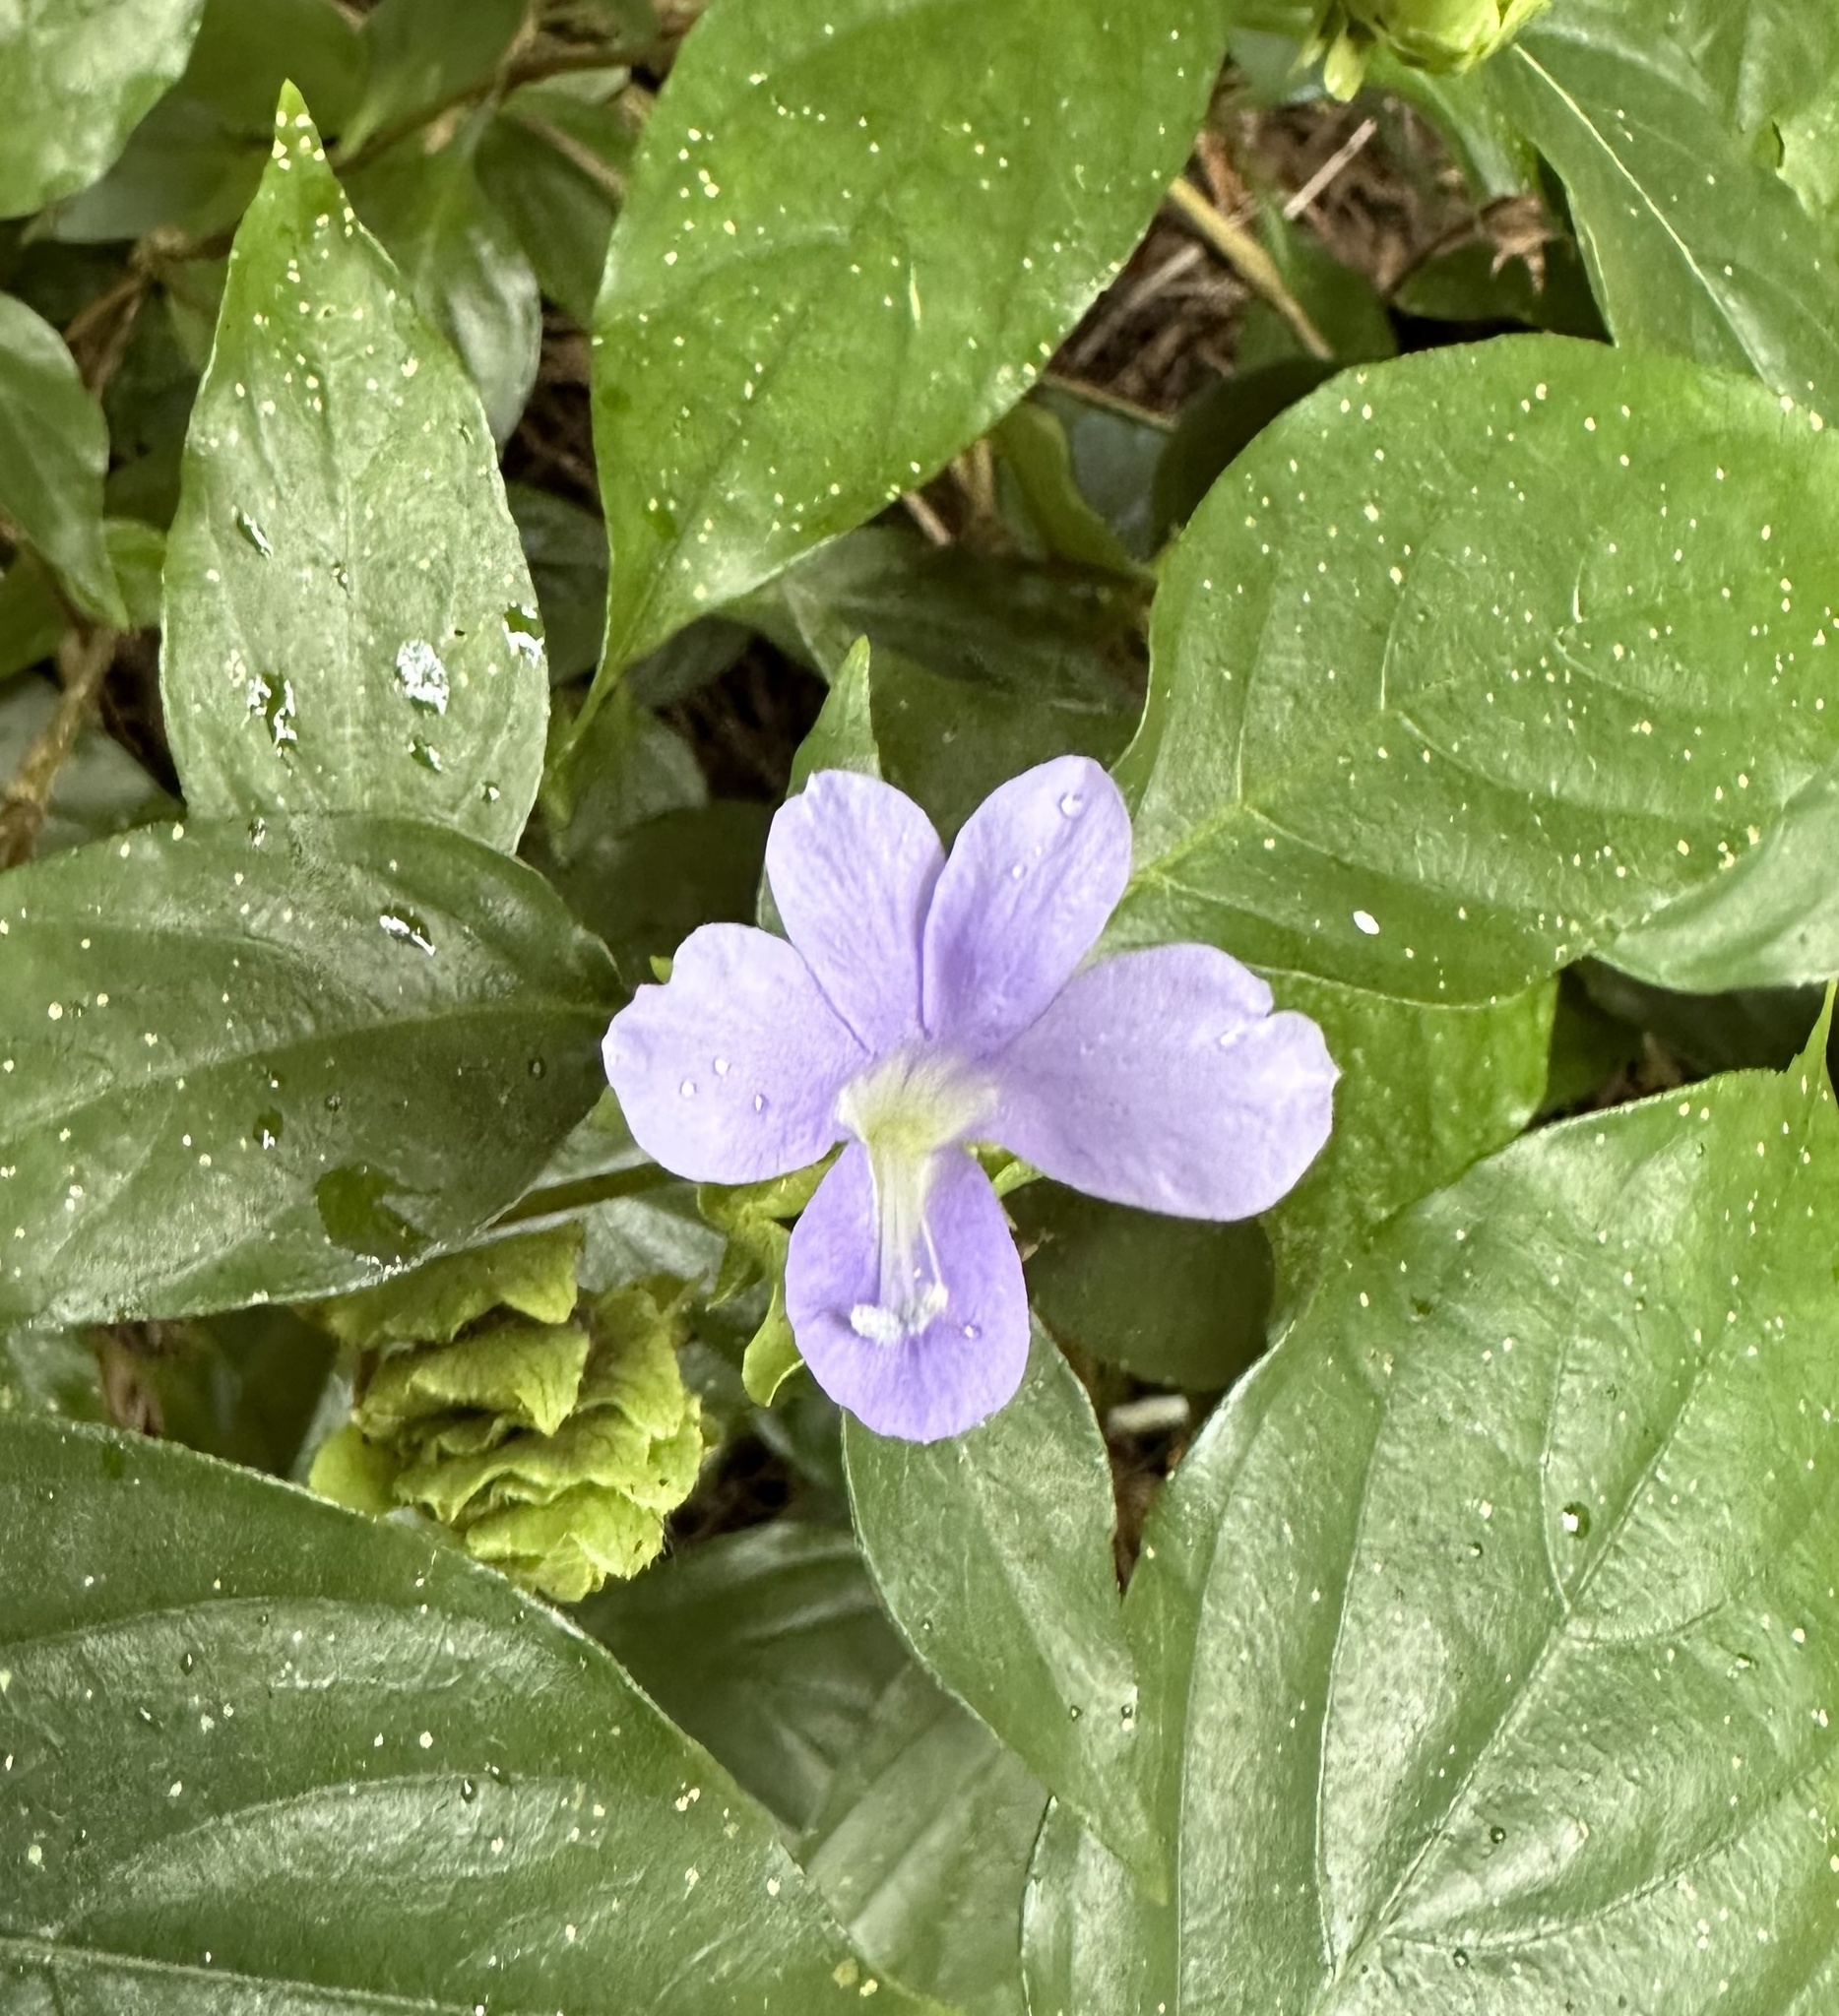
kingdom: Plantae
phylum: Tracheophyta
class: Magnoliopsida
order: Lamiales
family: Acanthaceae
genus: Ruellia
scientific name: Ruellia prostrata
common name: Prostrate wild petunia
